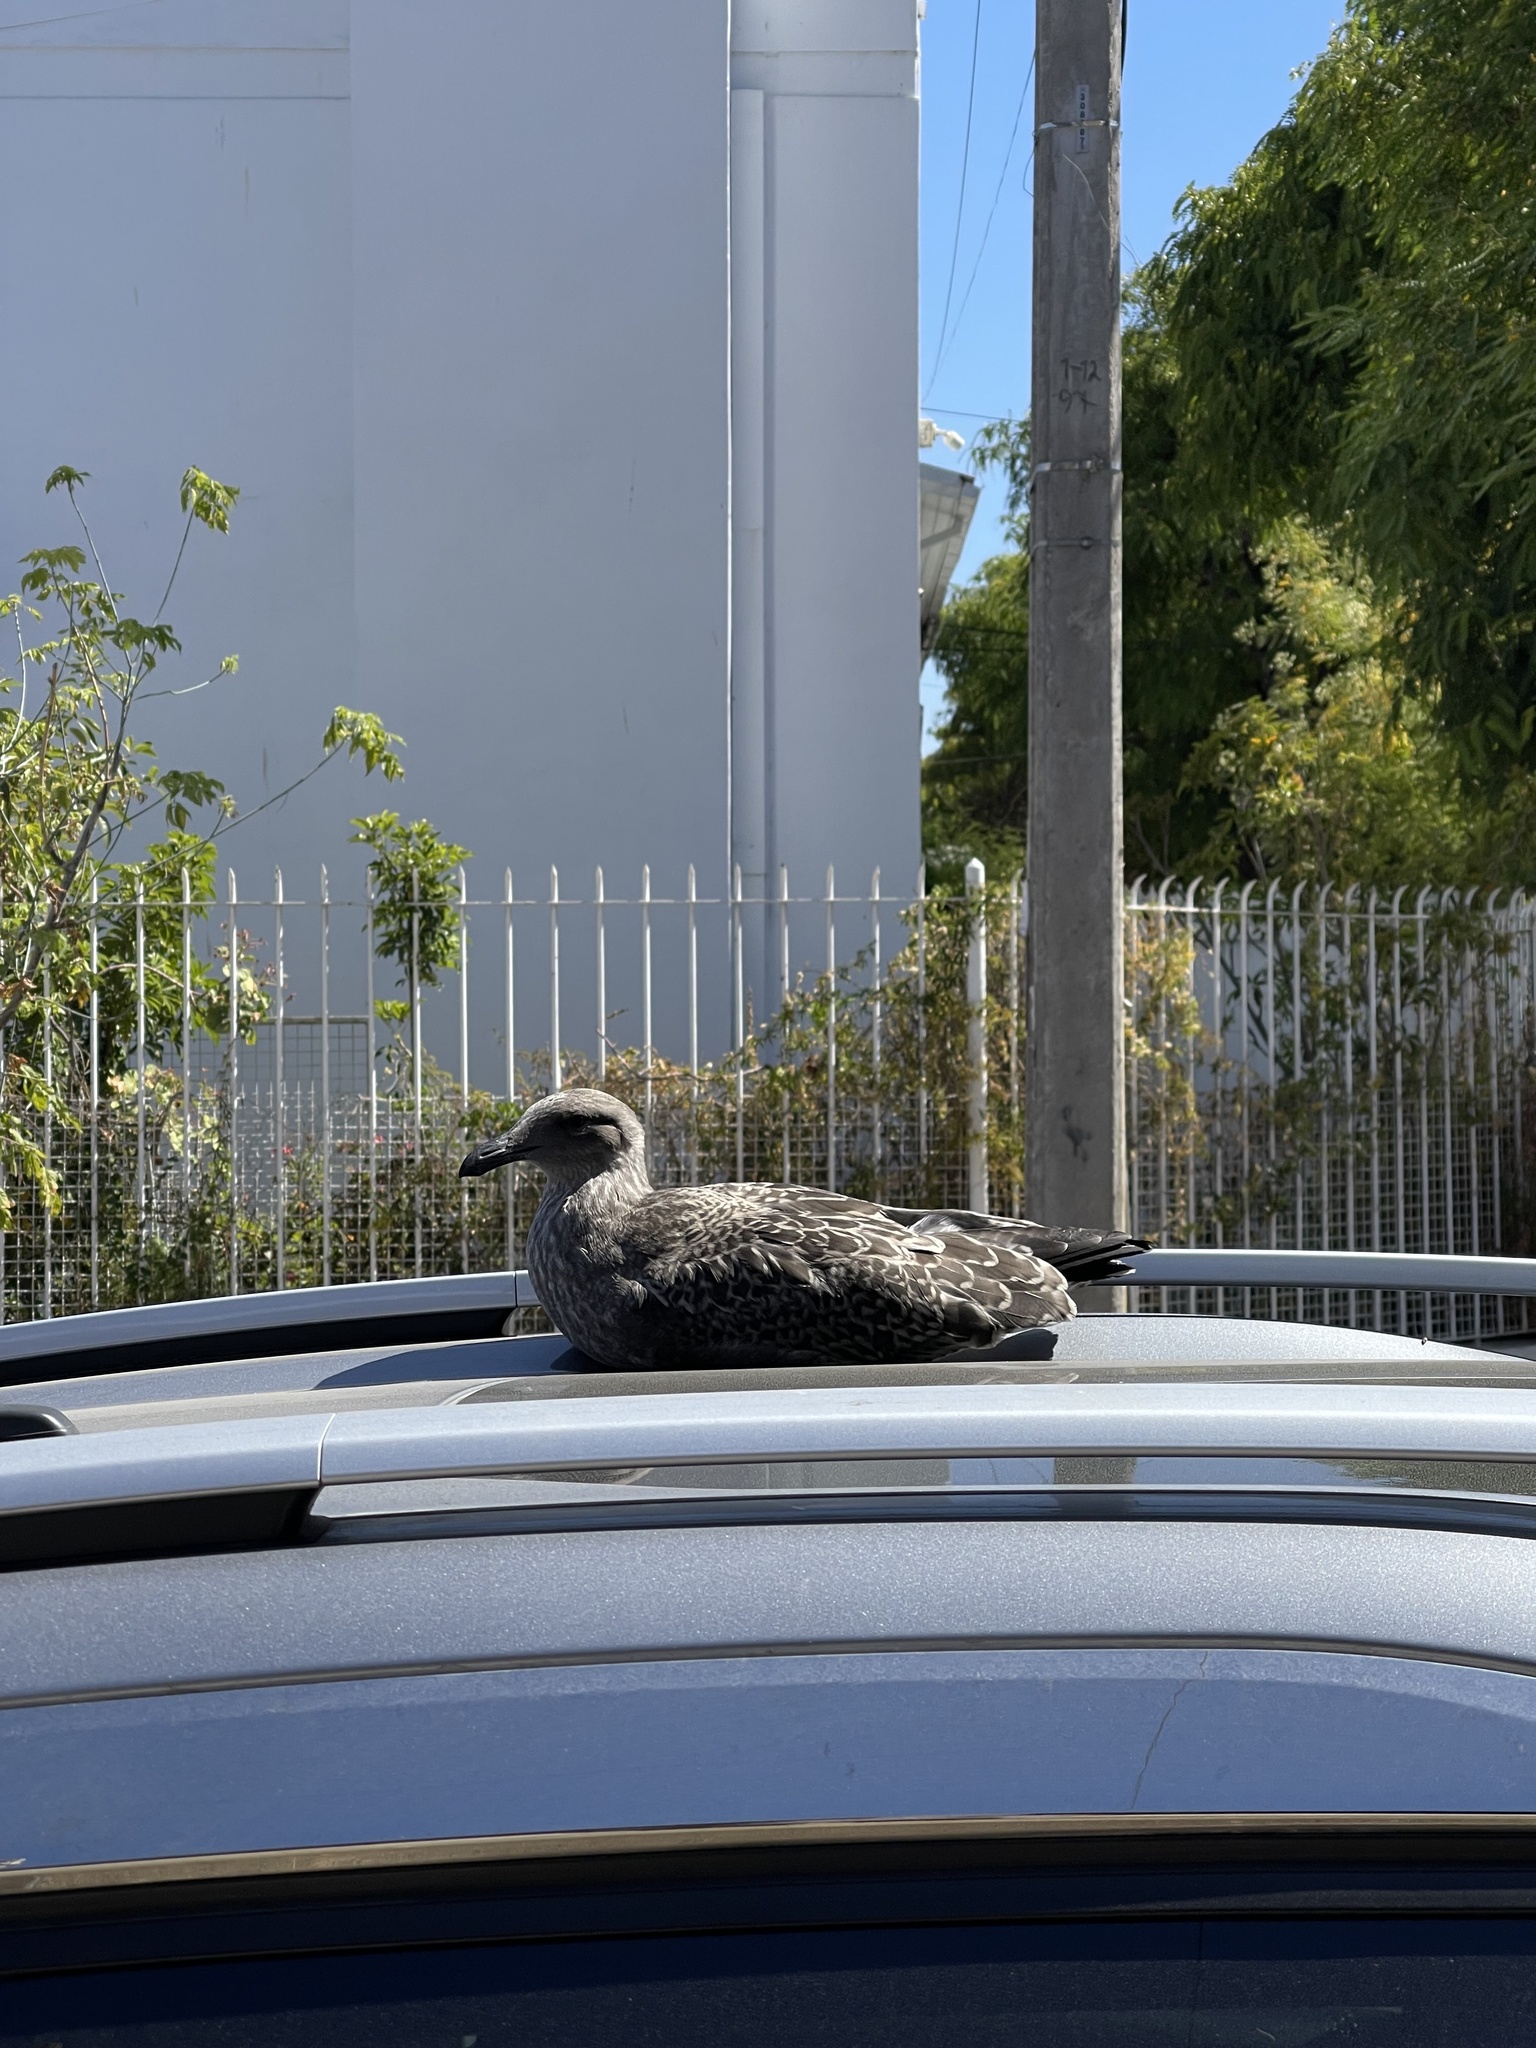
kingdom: Animalia
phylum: Chordata
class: Aves
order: Charadriiformes
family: Laridae
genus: Larus
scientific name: Larus dominicanus
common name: Kelp gull
